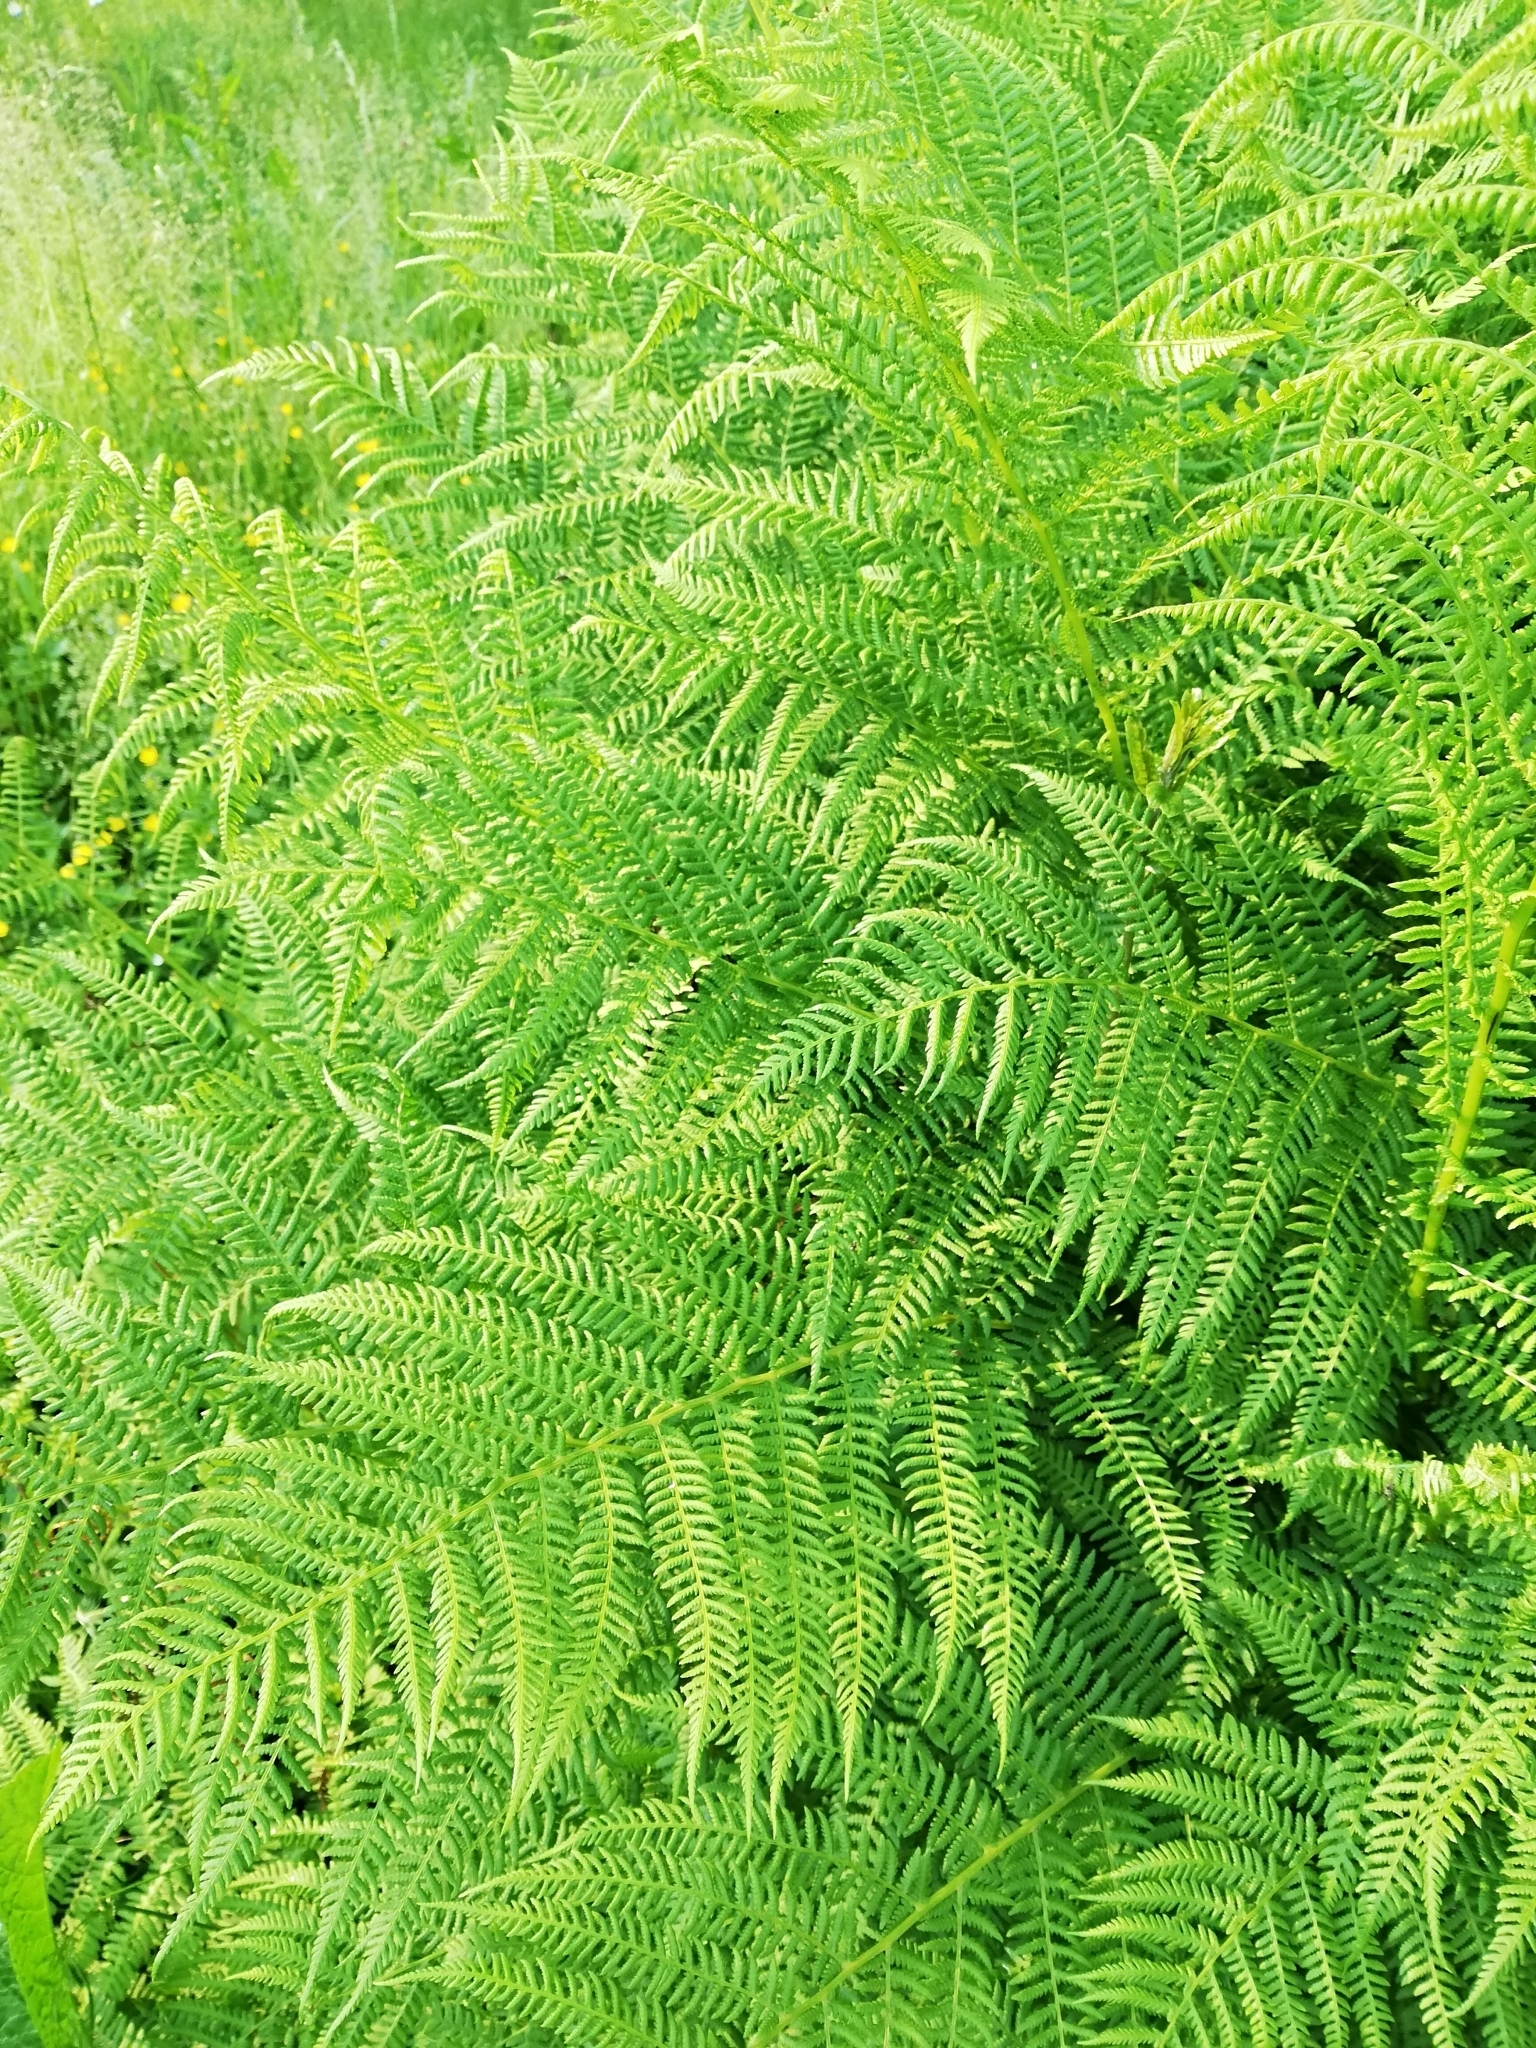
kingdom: Plantae
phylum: Tracheophyta
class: Polypodiopsida
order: Polypodiales
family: Athyriaceae
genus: Athyrium
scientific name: Athyrium filix-femina
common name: Lady fern
